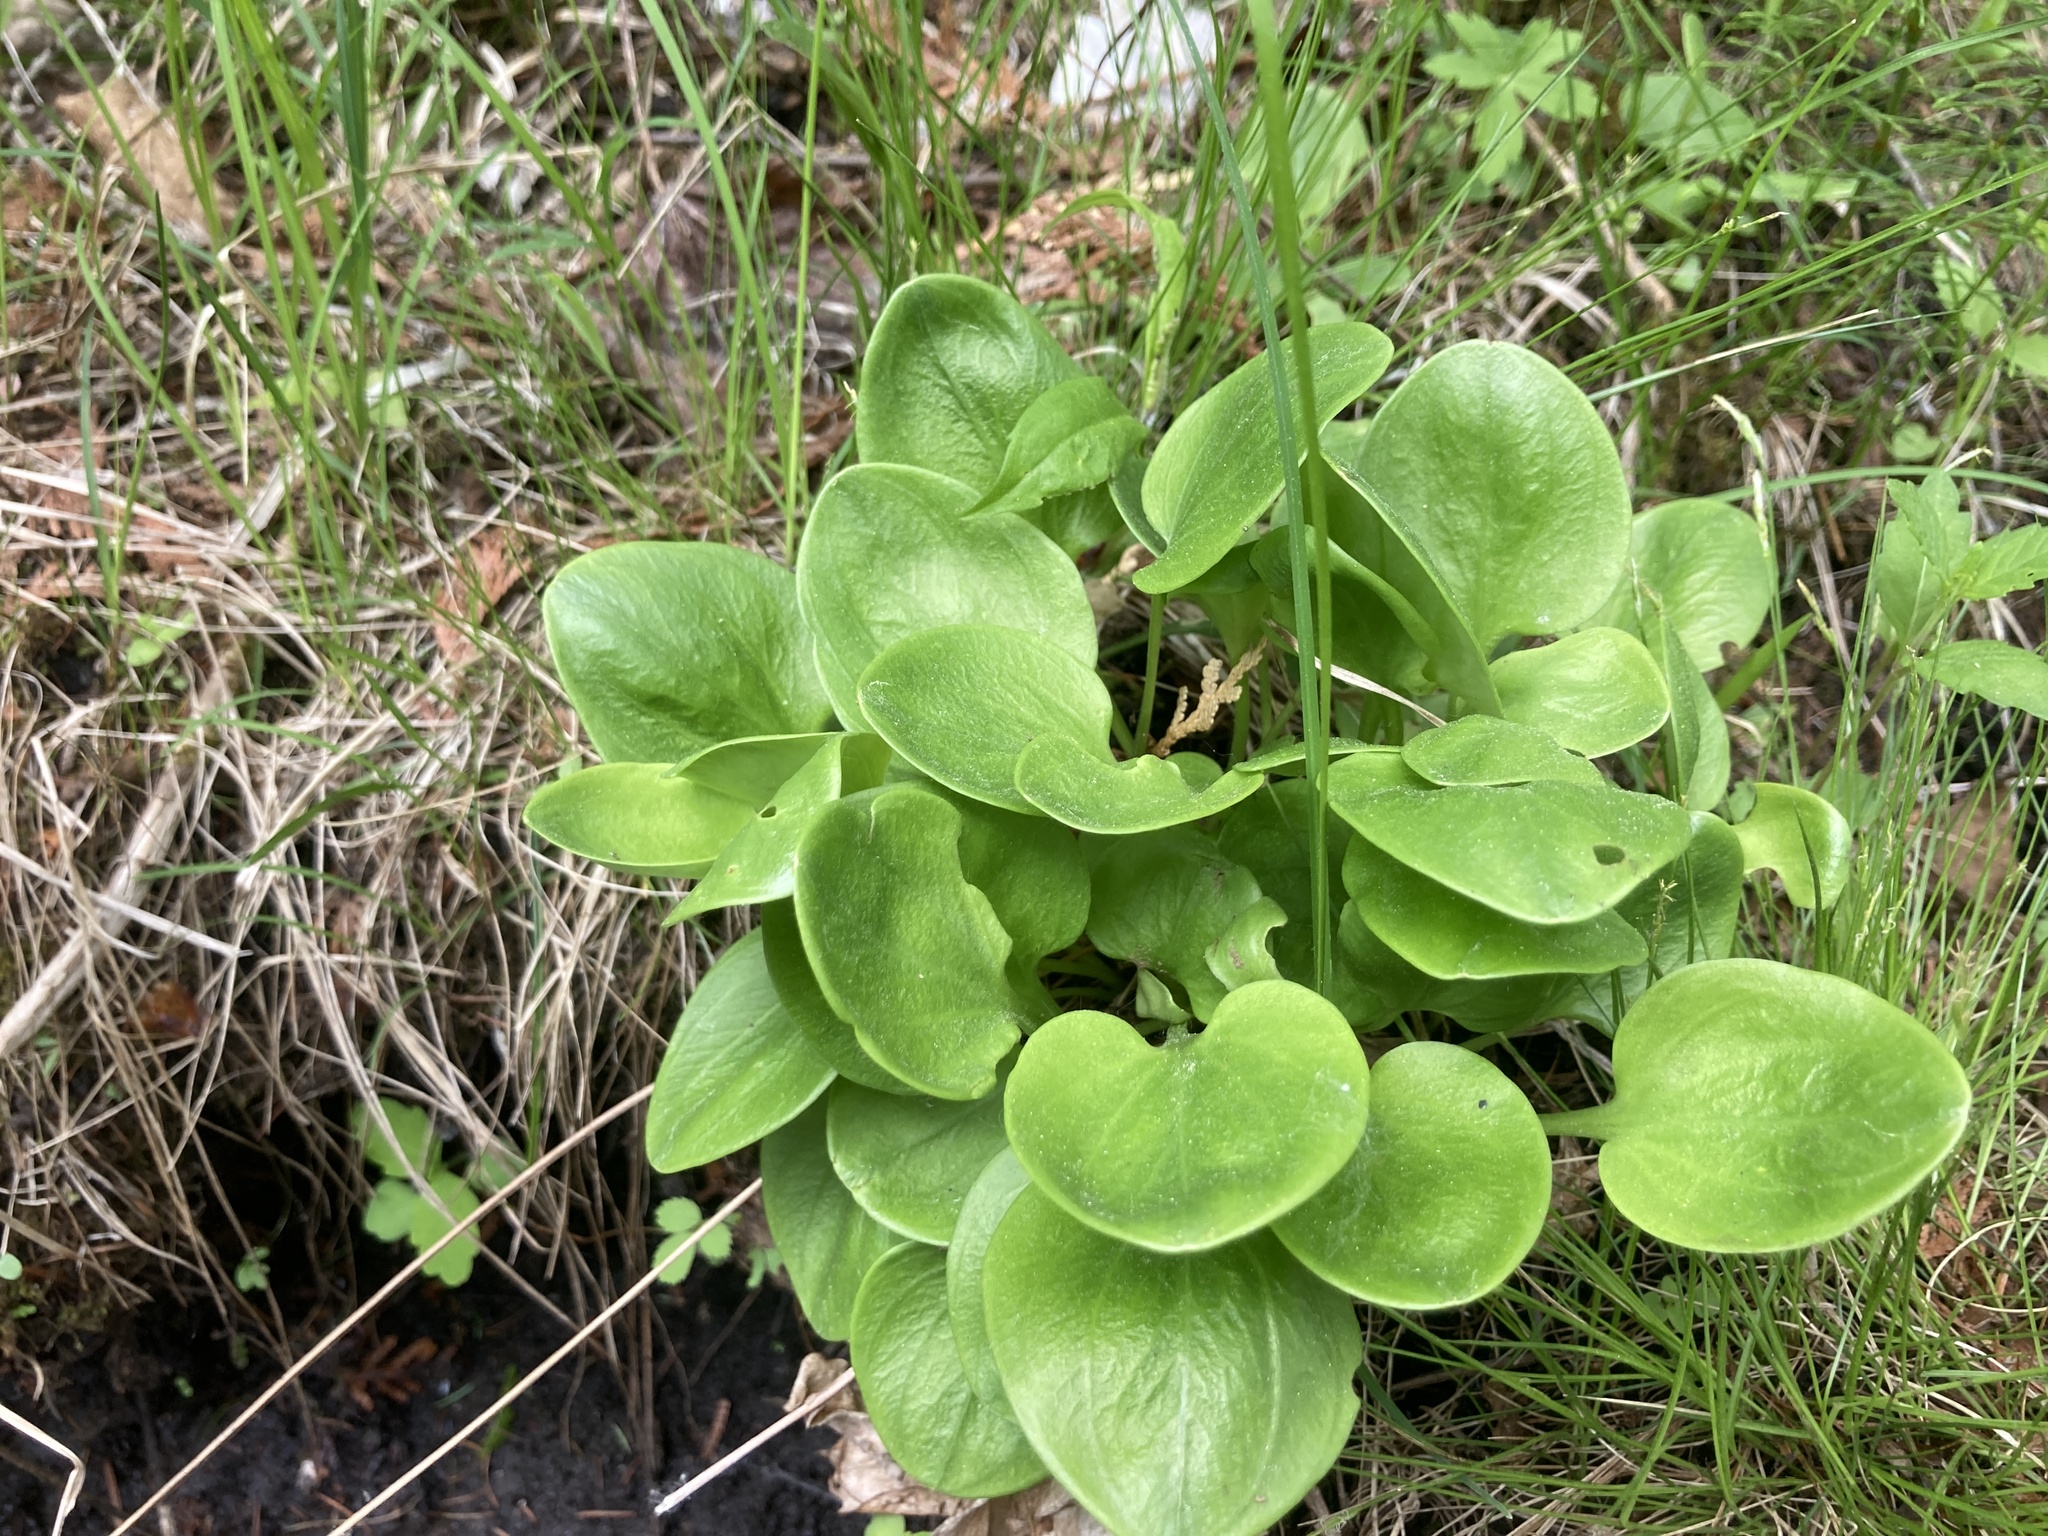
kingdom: Plantae
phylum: Tracheophyta
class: Magnoliopsida
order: Celastrales
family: Parnassiaceae
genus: Parnassia
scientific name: Parnassia glauca
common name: American grass-of-parnassus
